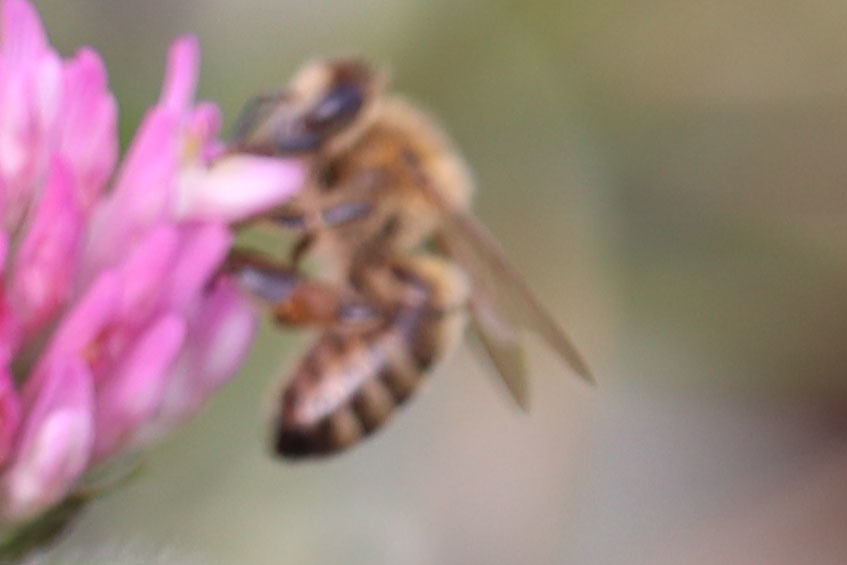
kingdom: Animalia
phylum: Arthropoda
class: Insecta
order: Hymenoptera
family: Apidae
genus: Apis
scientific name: Apis mellifera
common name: Honey bee
